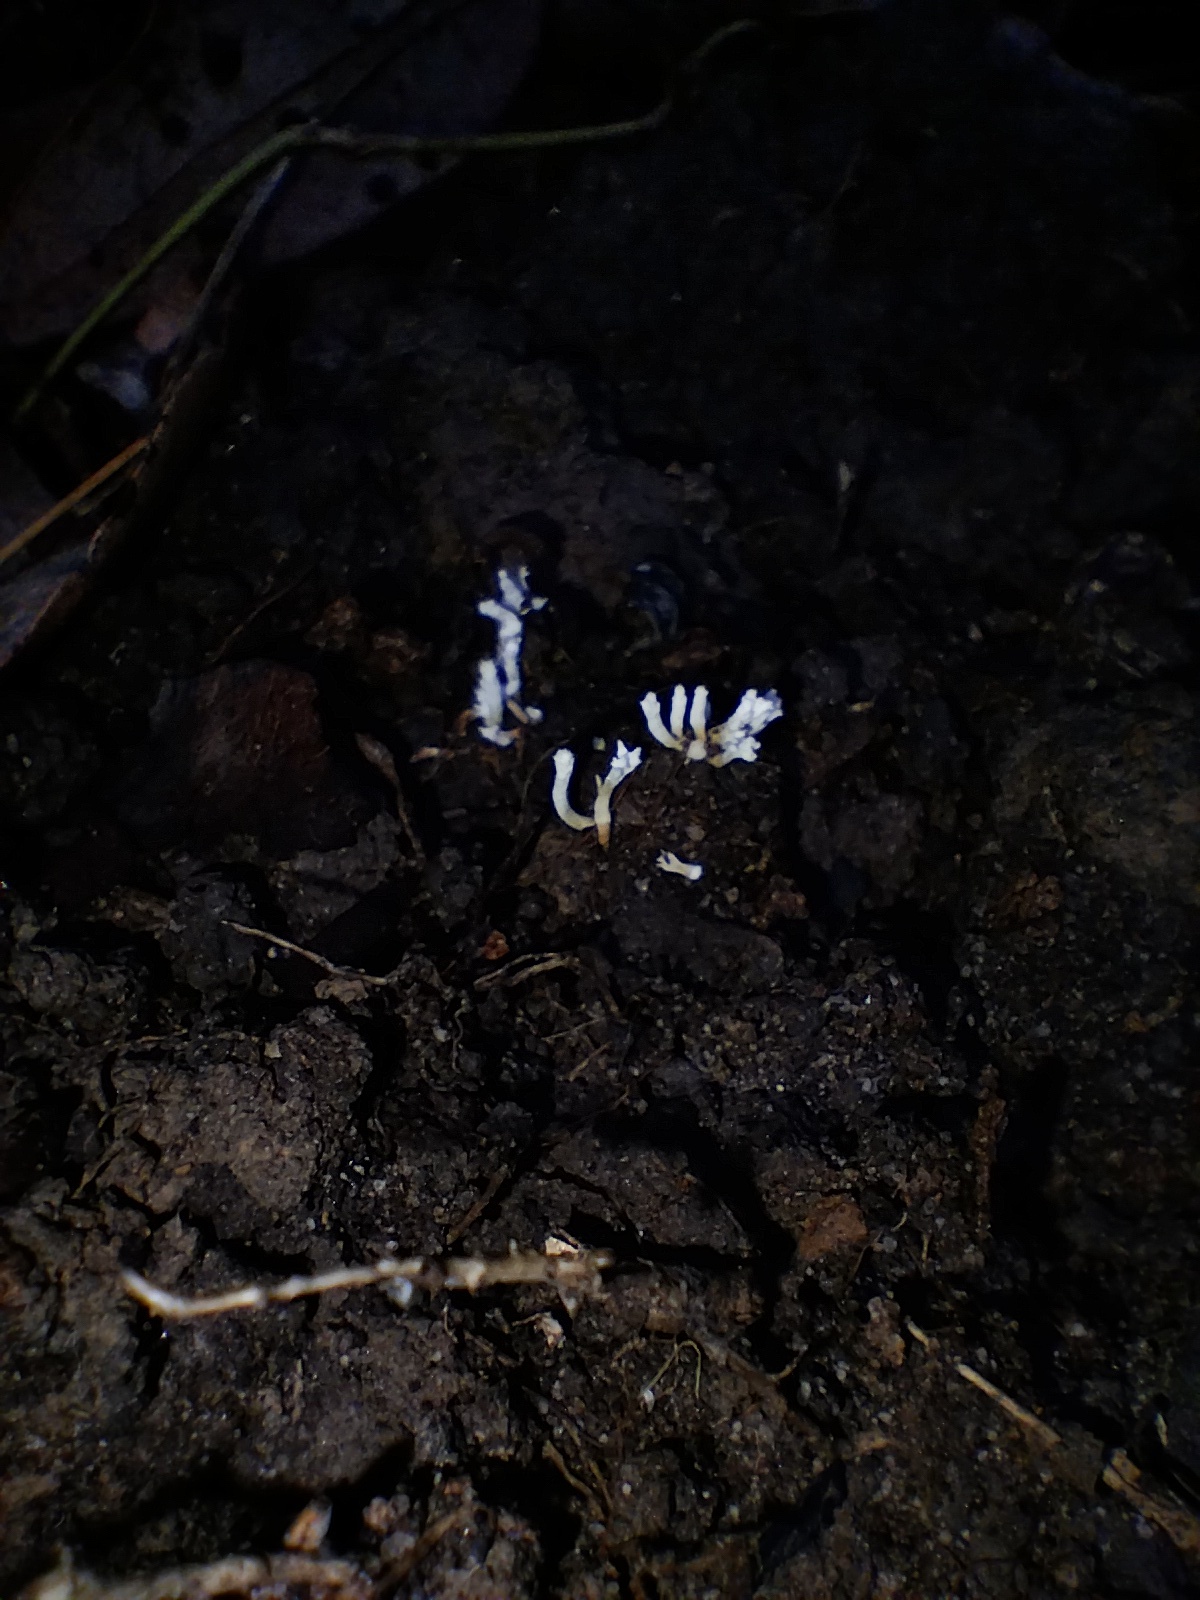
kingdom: Fungi
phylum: Ascomycota
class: Sordariomycetes
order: Hypocreales
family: Cordycipitaceae
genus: Cordyceps
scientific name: Cordyceps tenuipes
